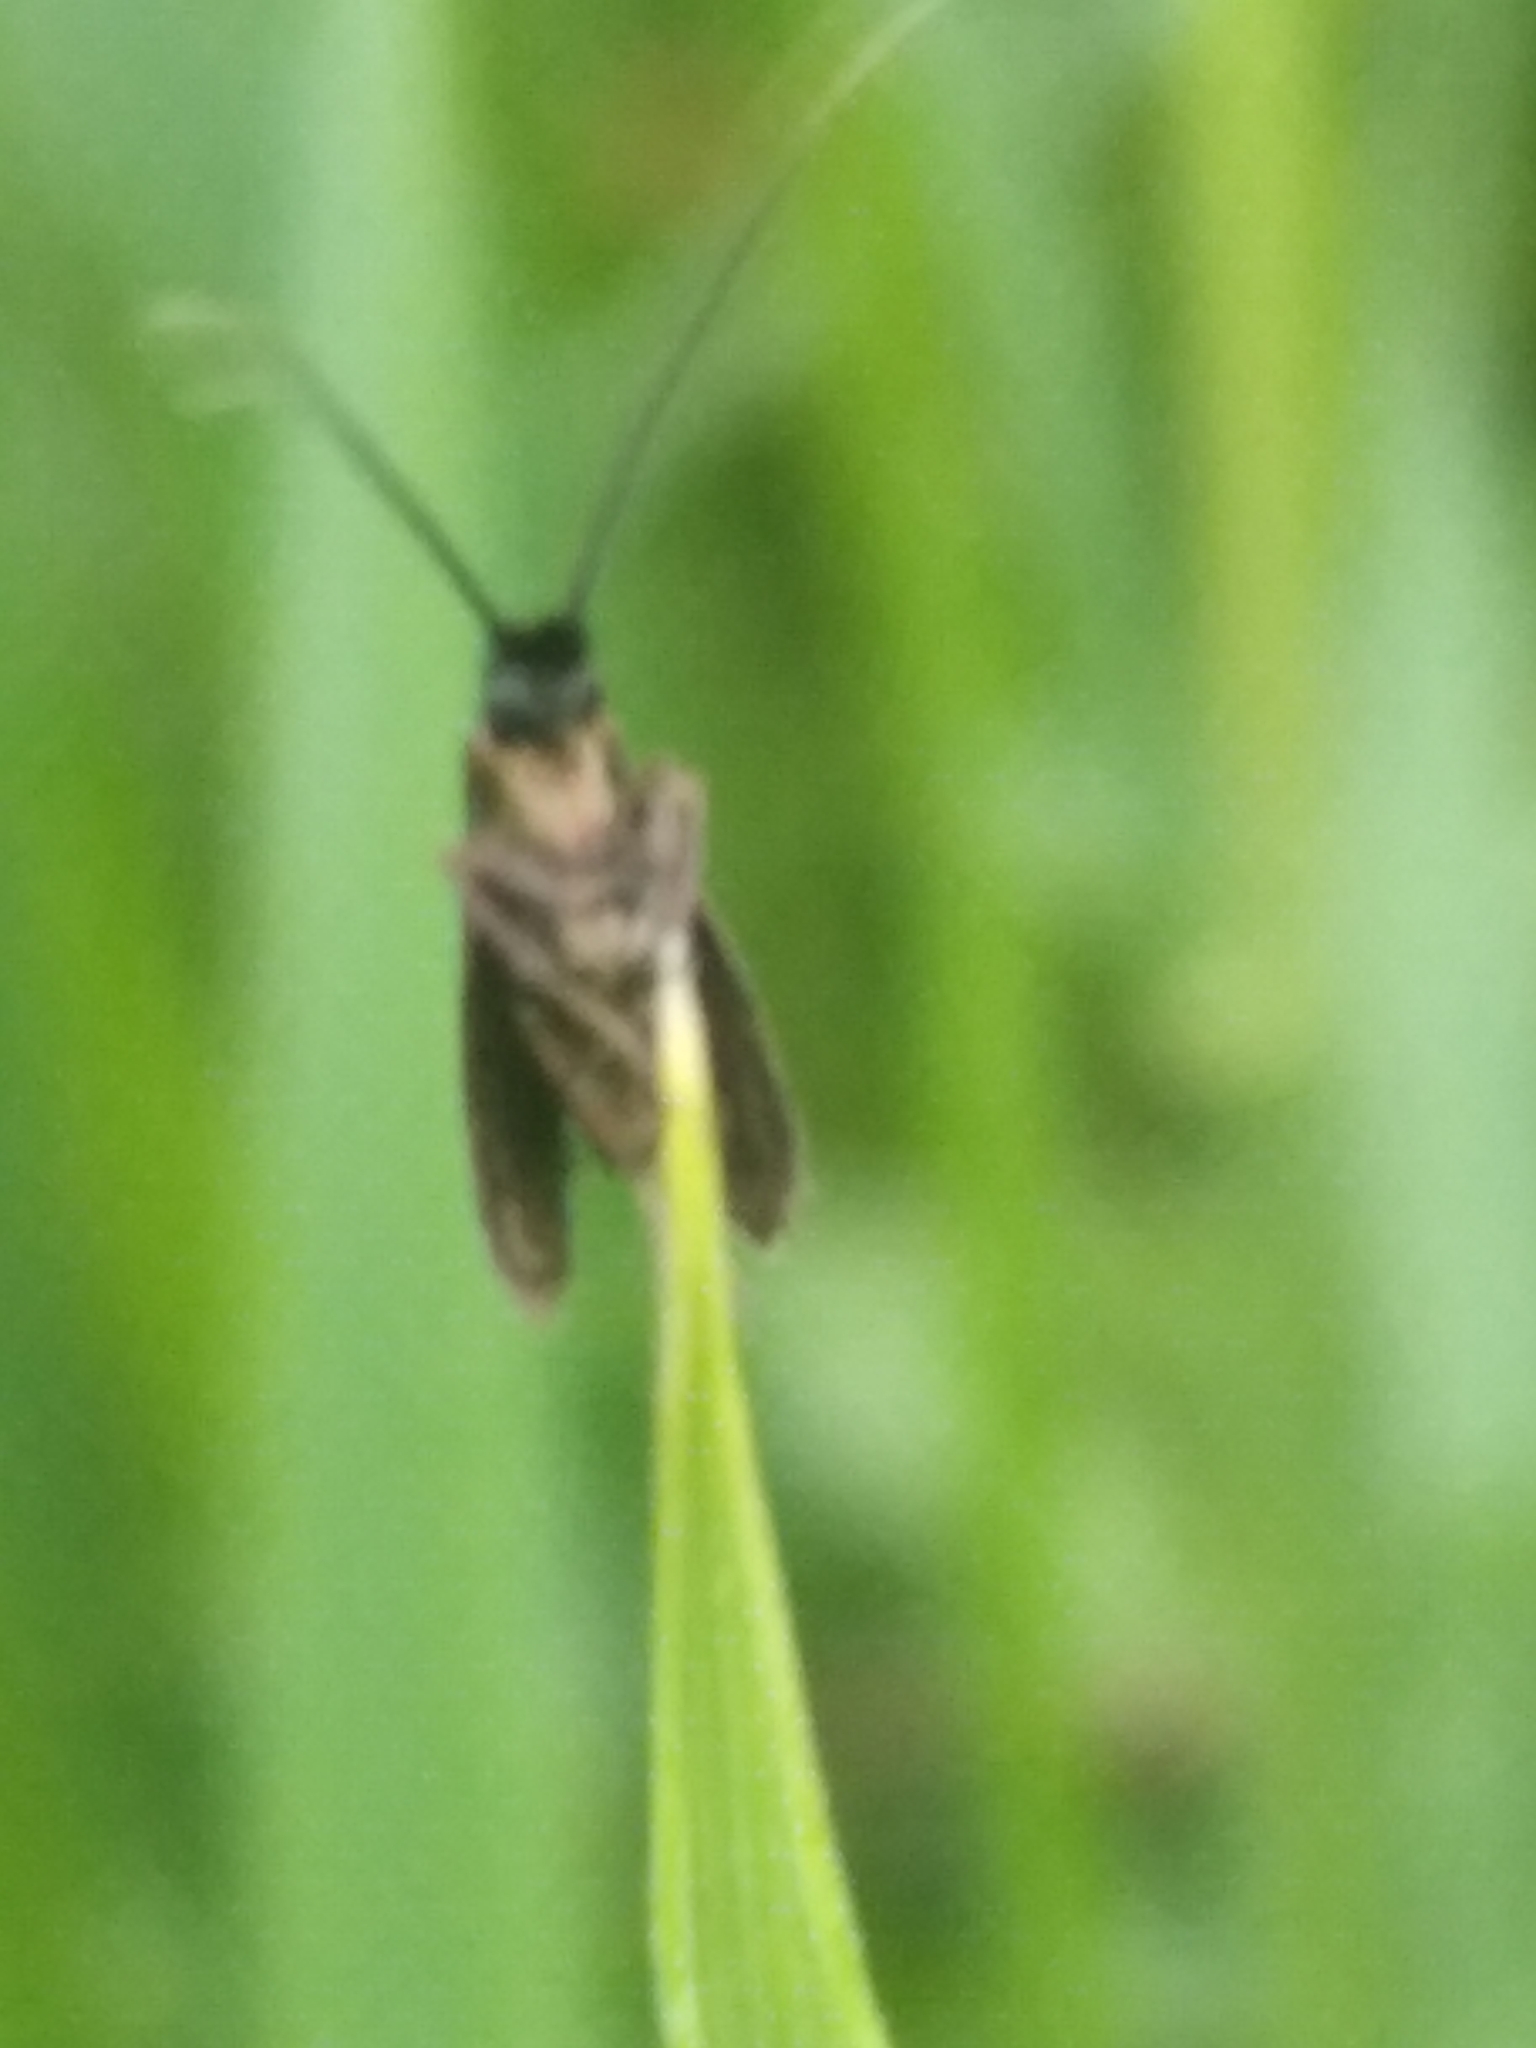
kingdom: Animalia
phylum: Arthropoda
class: Insecta
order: Lepidoptera
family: Adelidae
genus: Cauchas
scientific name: Cauchas fibulella
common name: Little long-horn
